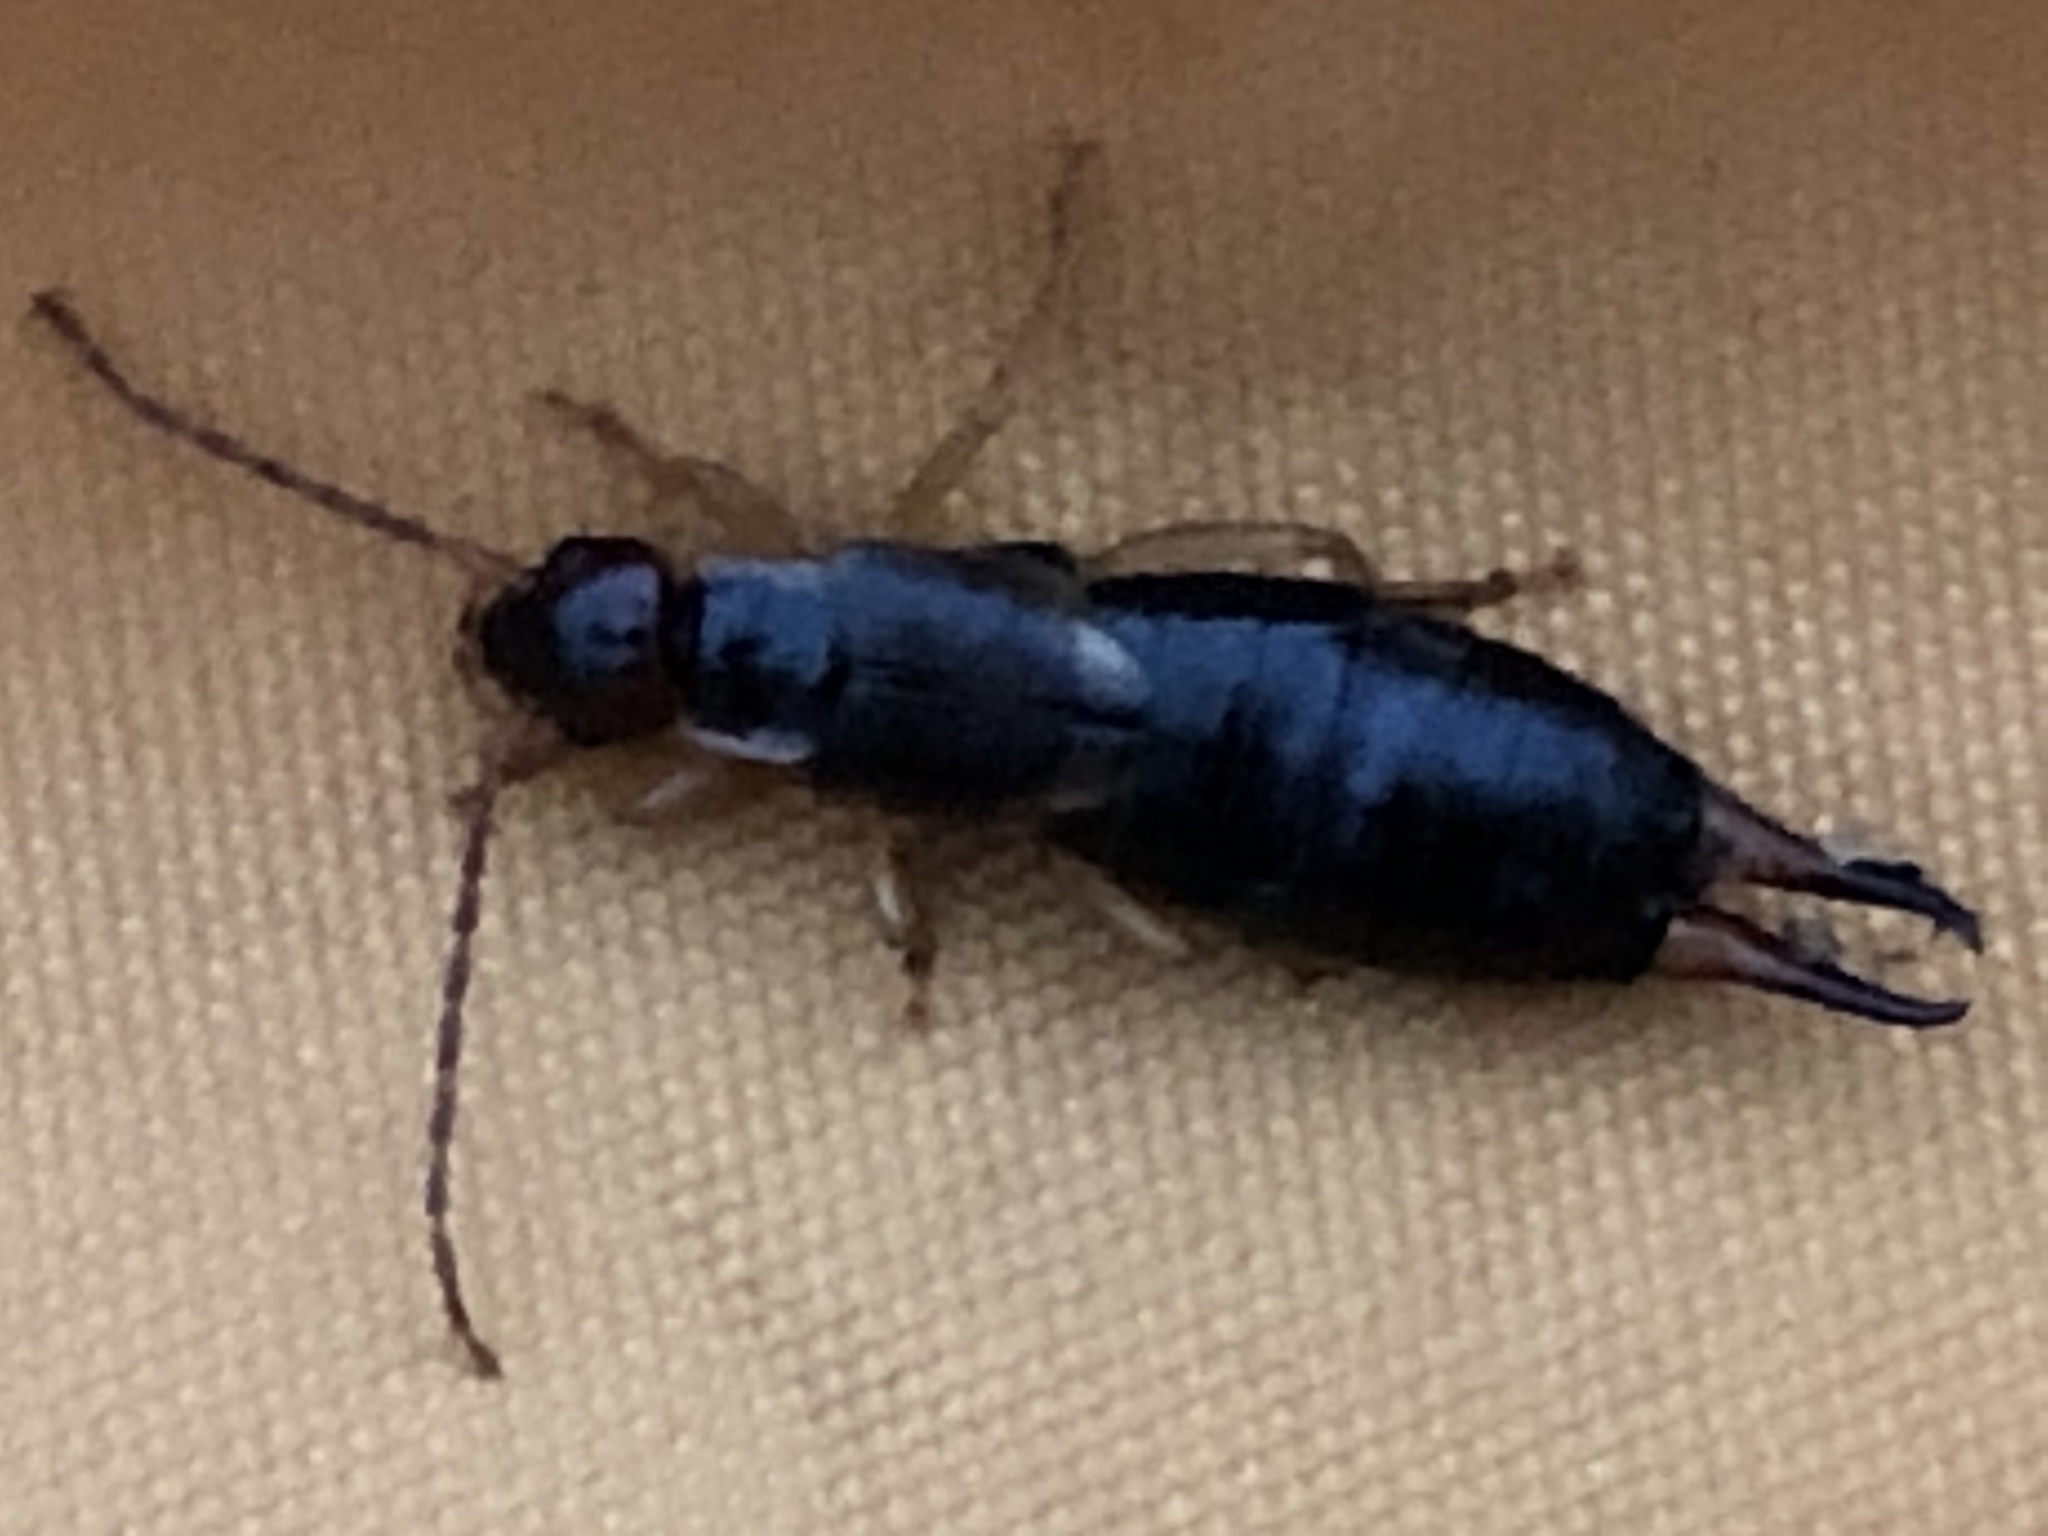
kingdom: Animalia
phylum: Arthropoda
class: Insecta
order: Dermaptera
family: Forficulidae
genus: Forficula
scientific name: Forficula
